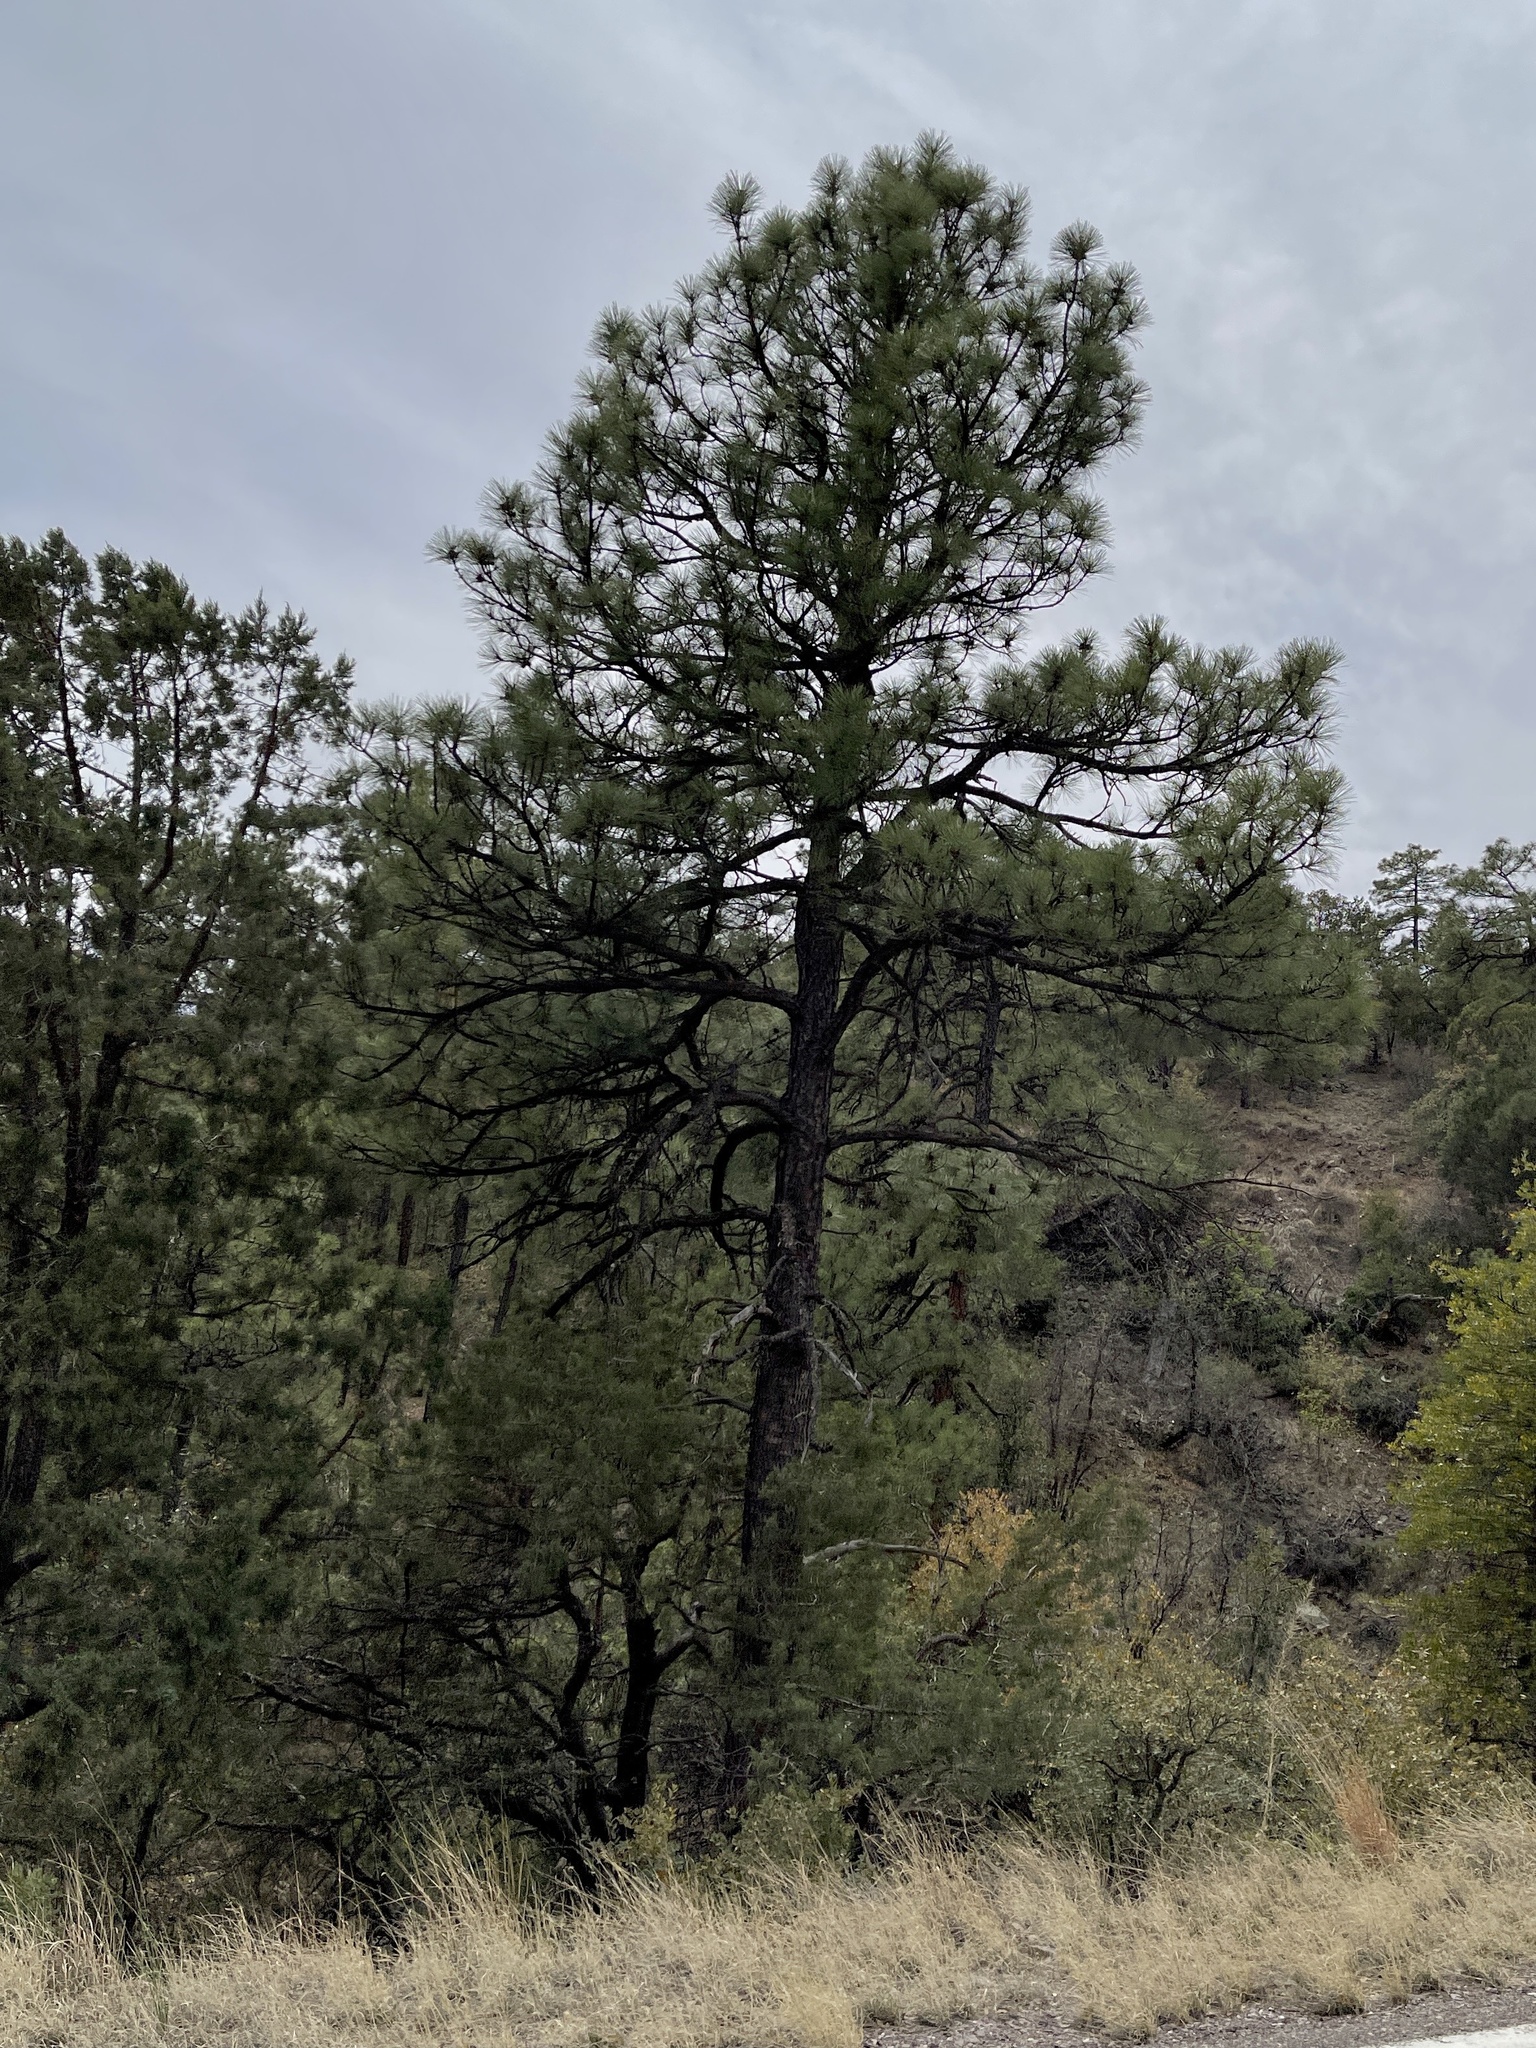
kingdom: Plantae
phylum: Tracheophyta
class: Pinopsida
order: Pinales
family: Pinaceae
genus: Pinus
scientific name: Pinus ponderosa
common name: Western yellow-pine
